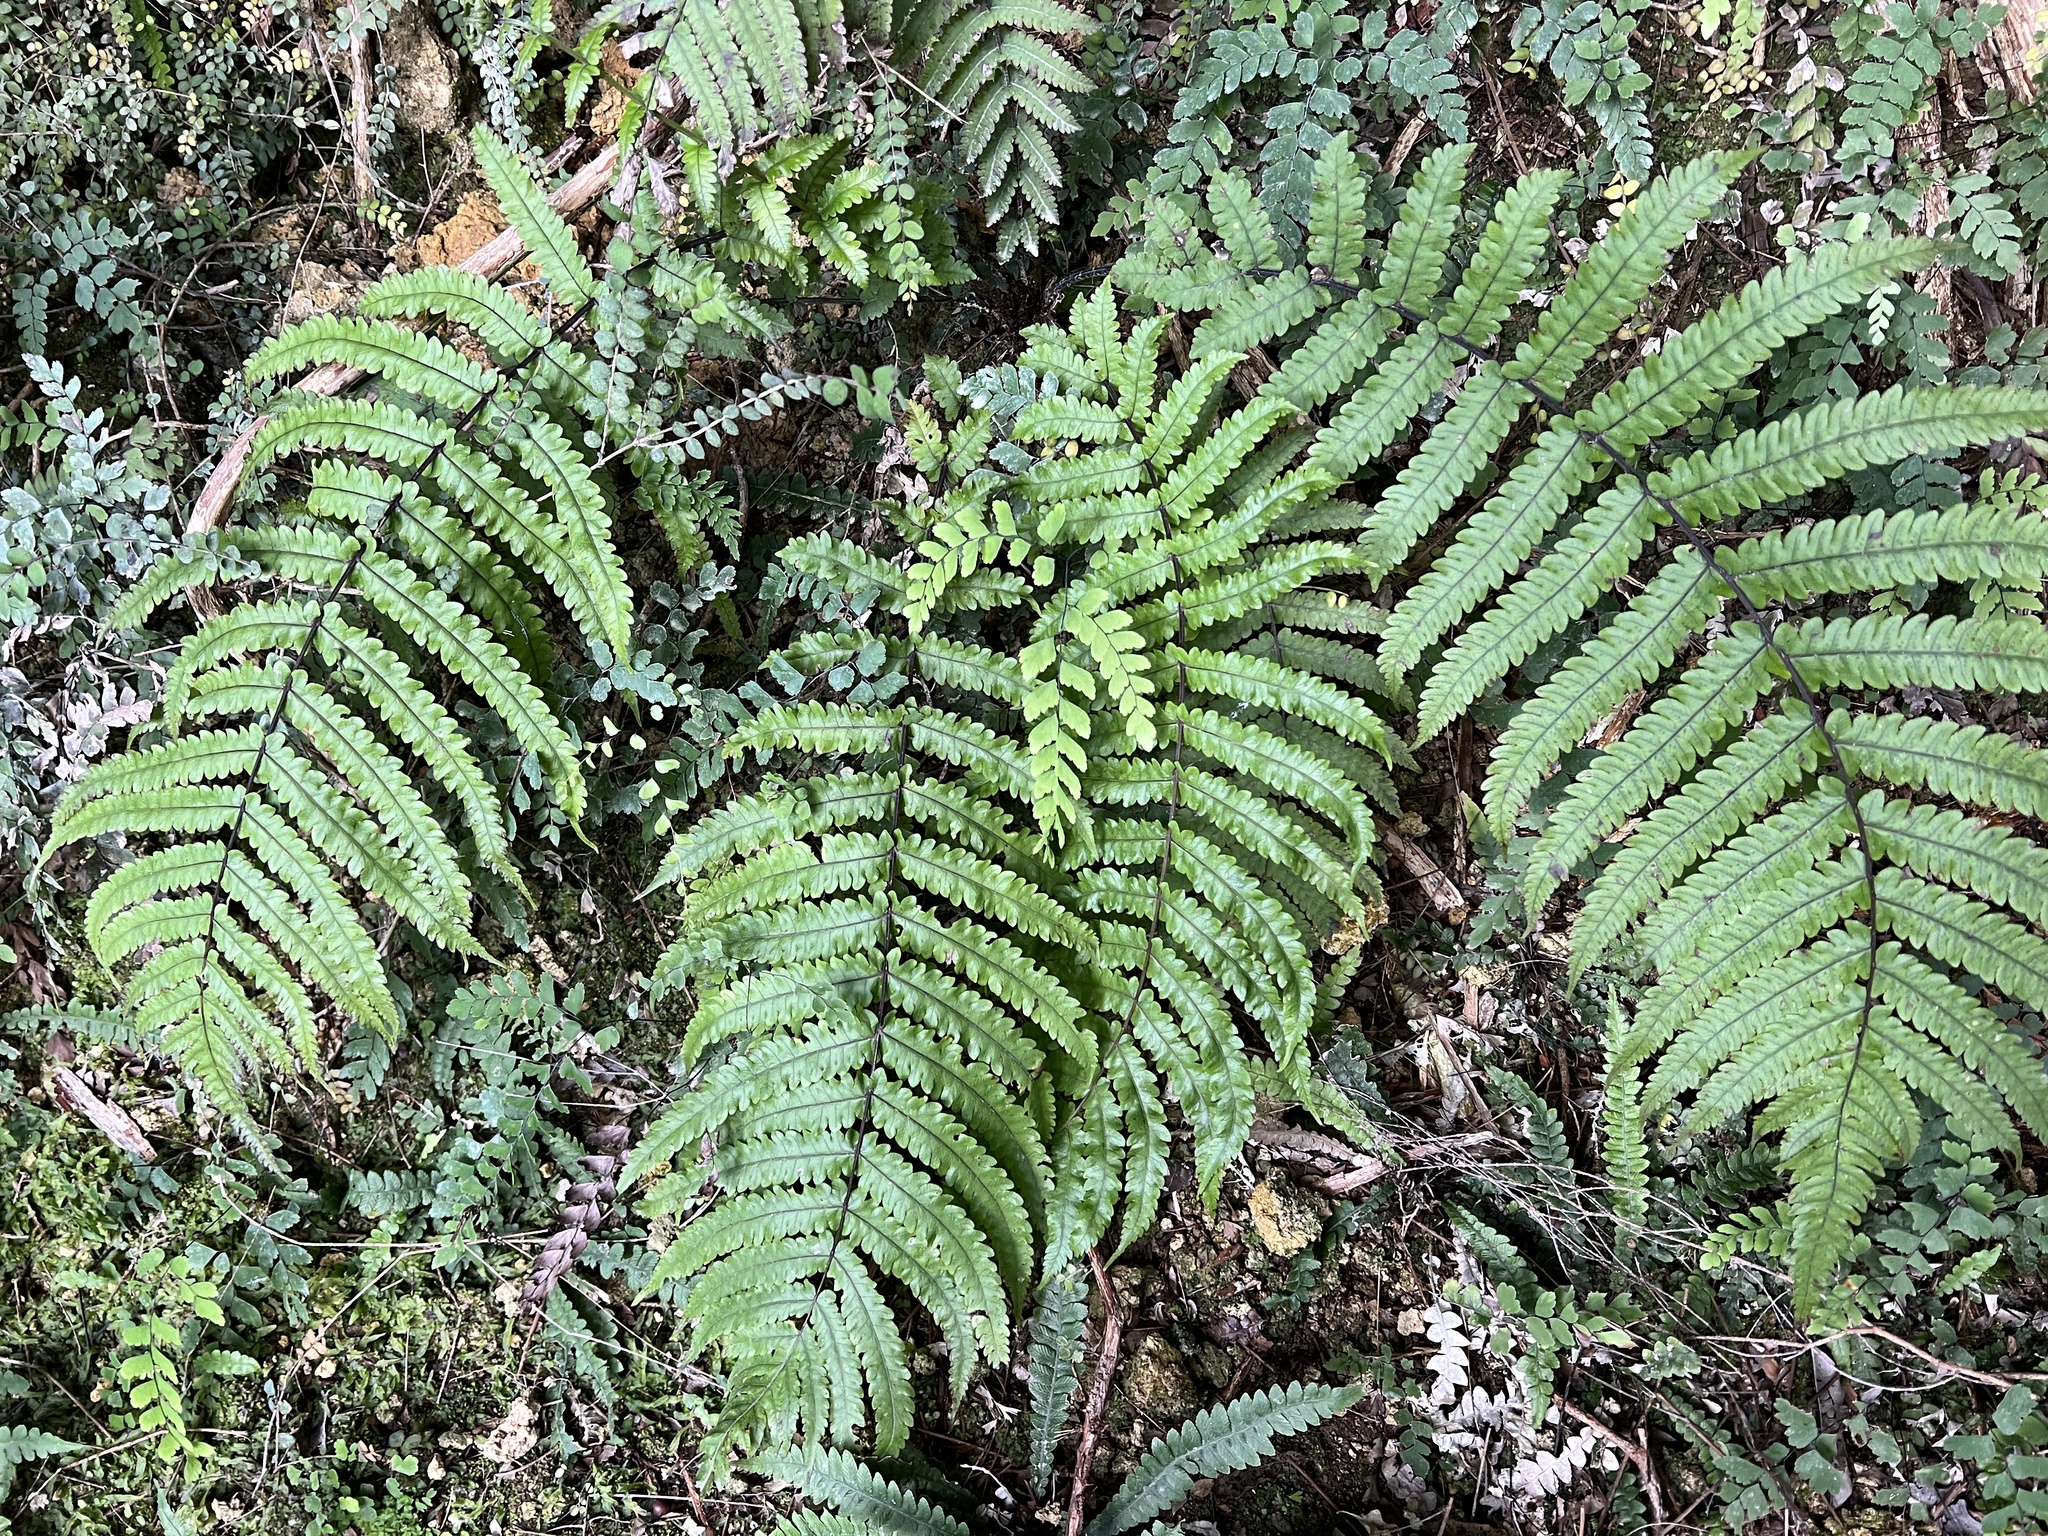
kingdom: Plantae
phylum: Tracheophyta
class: Polypodiopsida
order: Polypodiales
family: Thelypteridaceae
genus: Pakau
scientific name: Pakau pennigera
